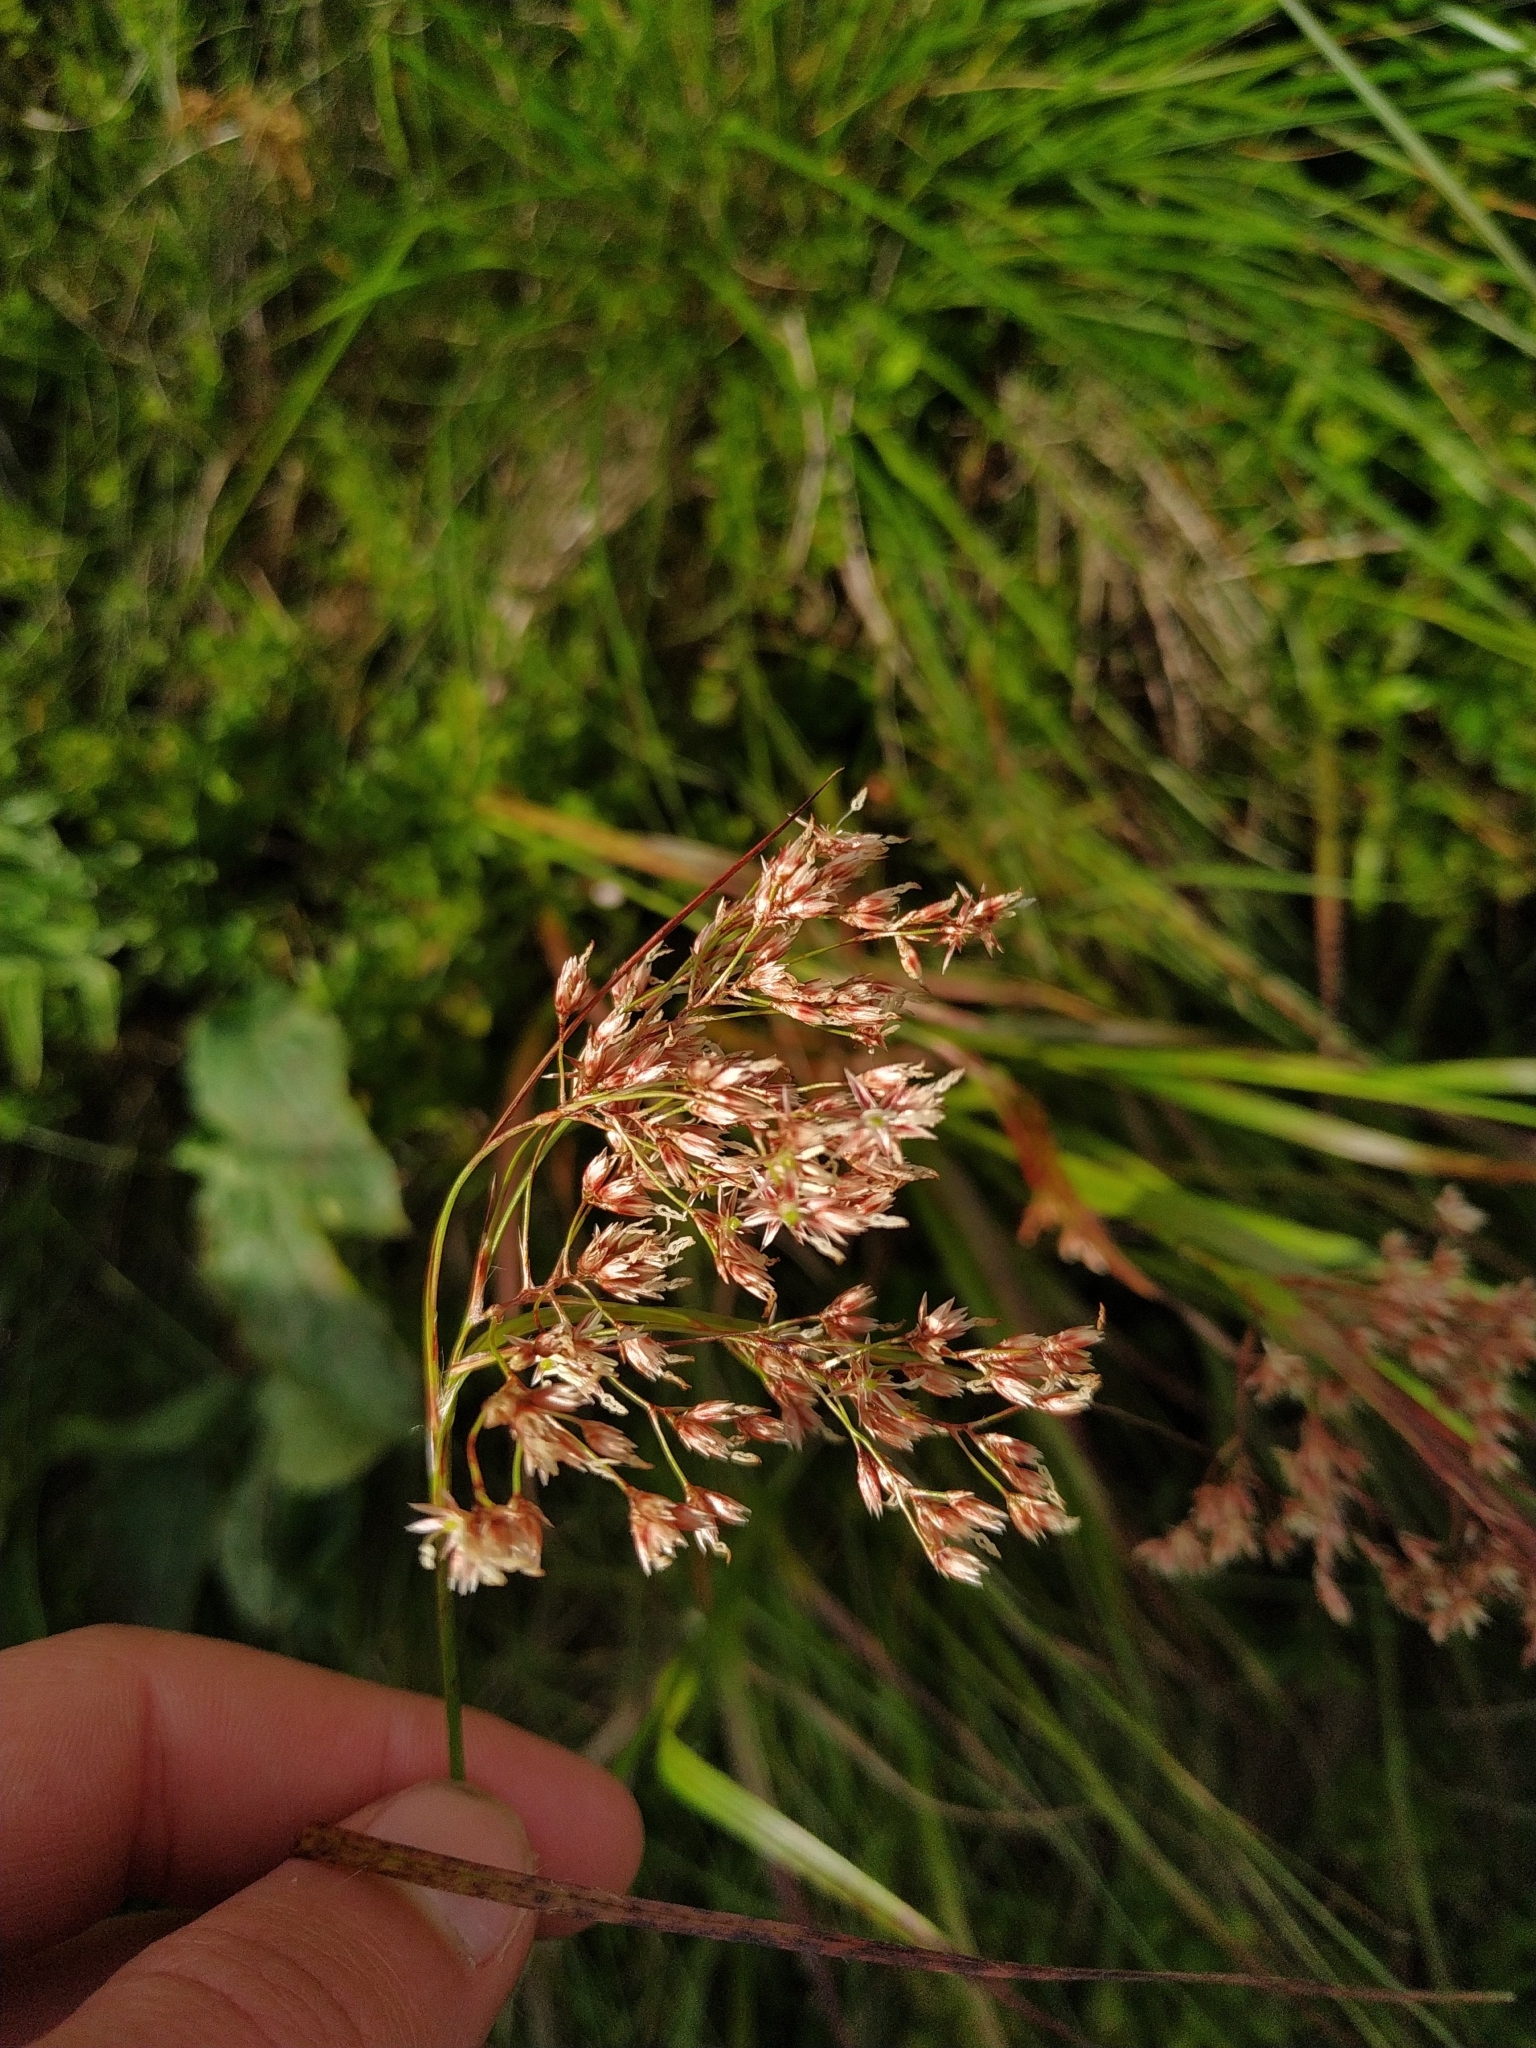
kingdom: Plantae
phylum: Tracheophyta
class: Liliopsida
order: Poales
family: Juncaceae
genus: Luzula
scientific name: Luzula luzuloides
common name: White wood-rush
